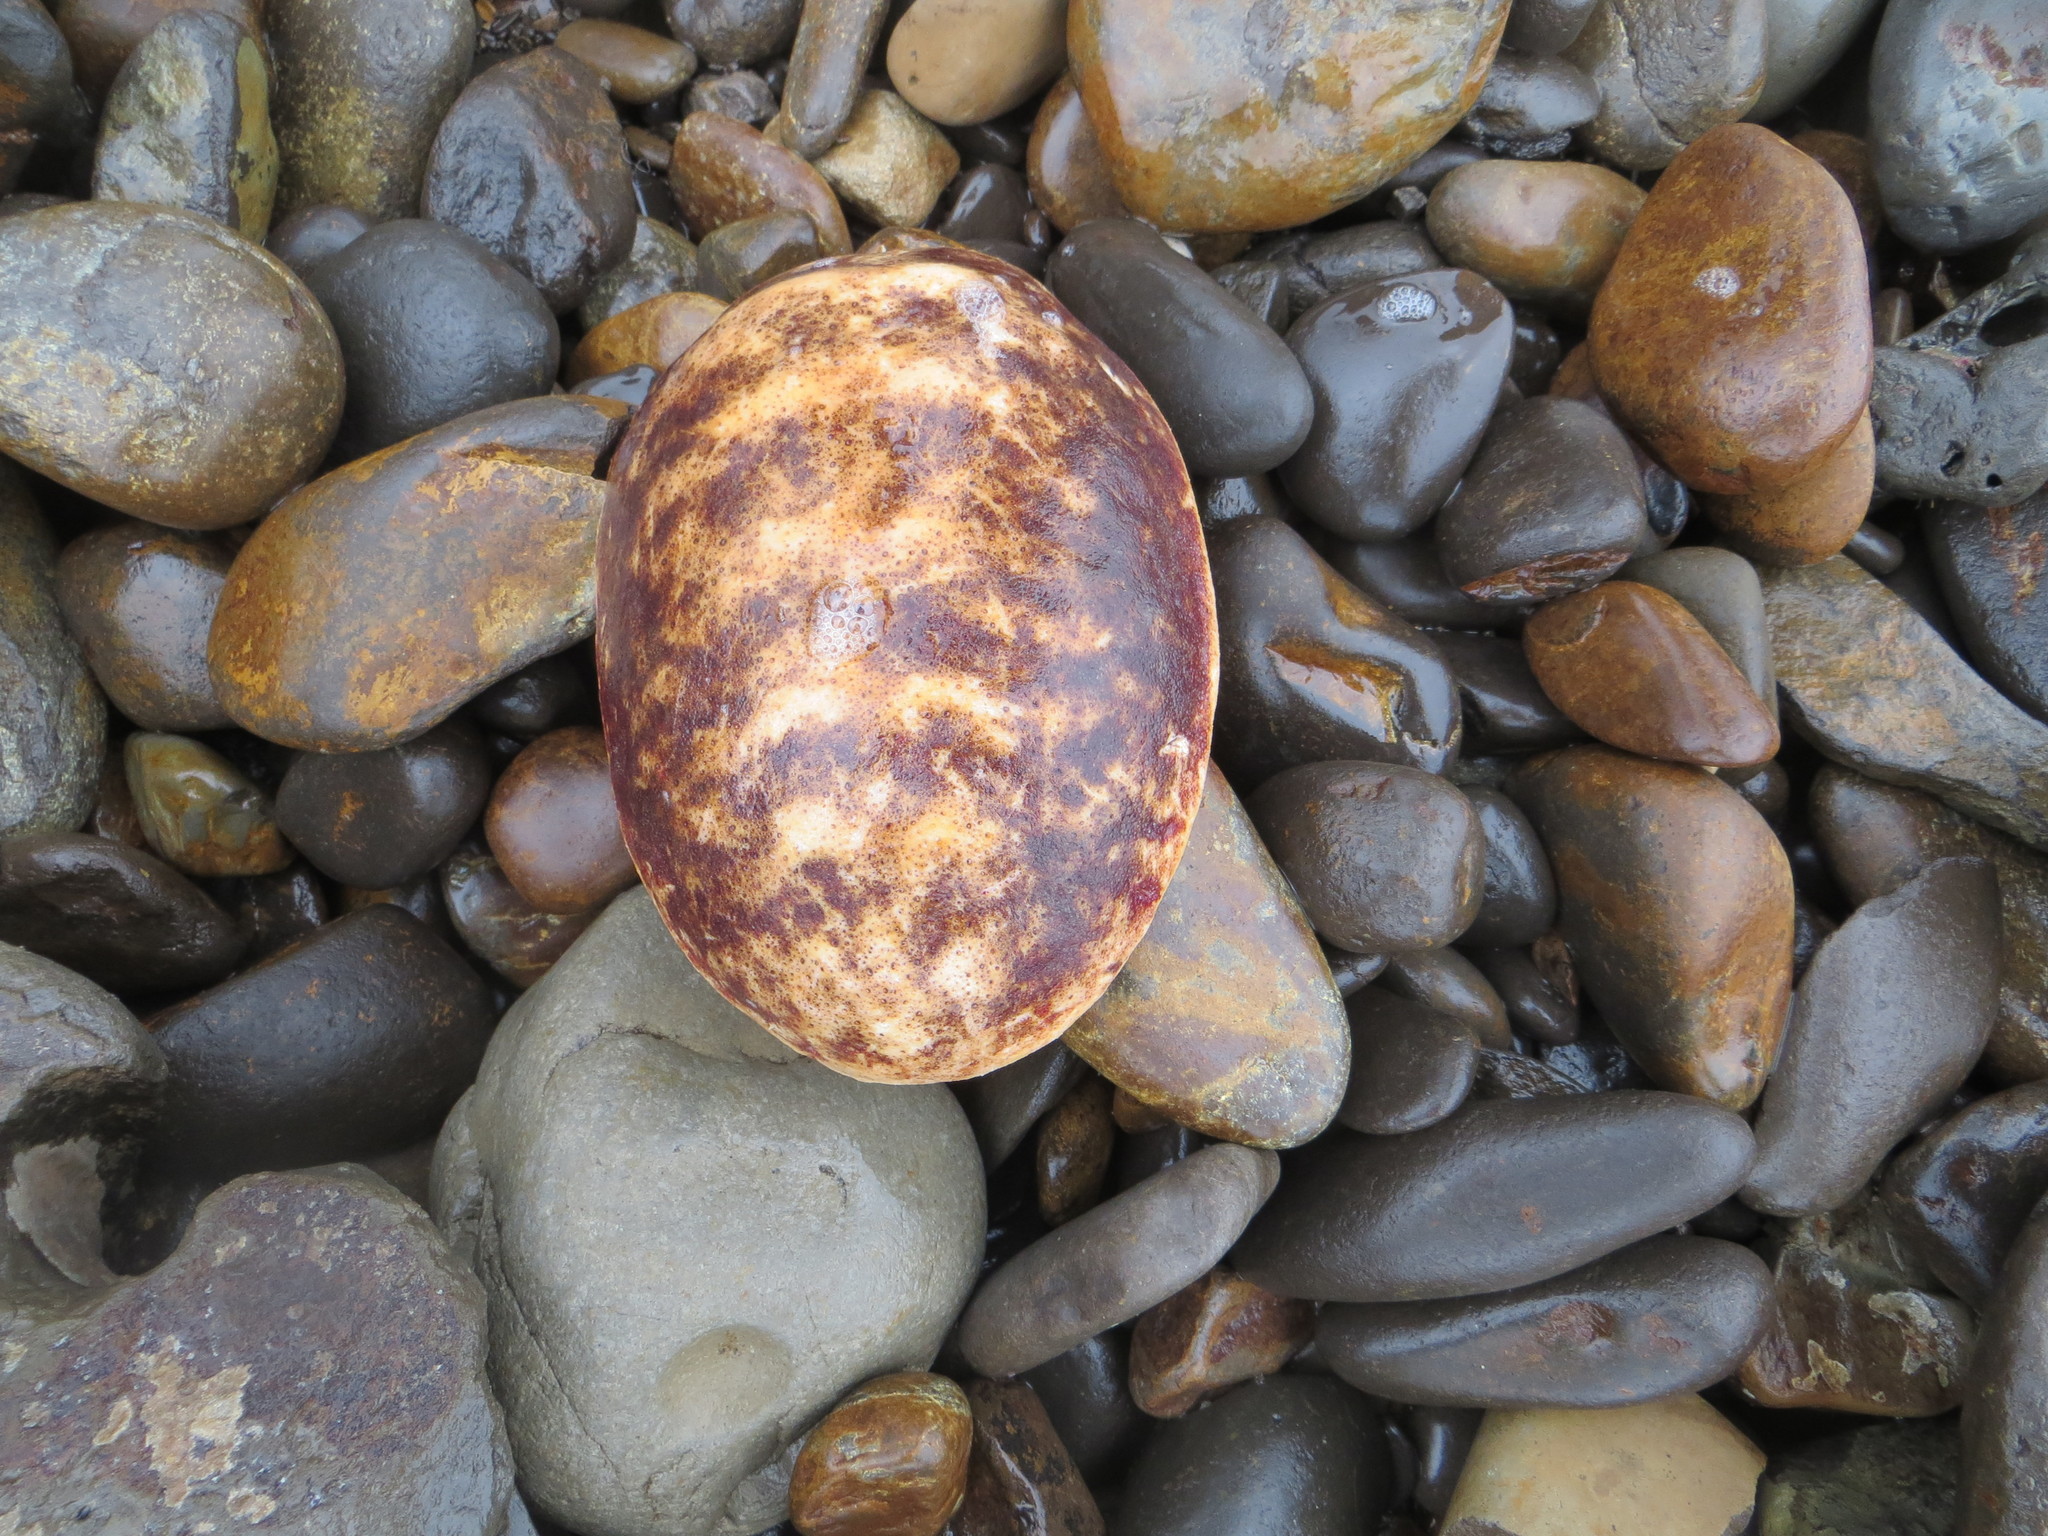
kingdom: Animalia
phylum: Mollusca
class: Polyplacophora
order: Chitonida
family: Acanthochitonidae
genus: Cryptochiton
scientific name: Cryptochiton stelleri
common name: Giant pacific chiton
